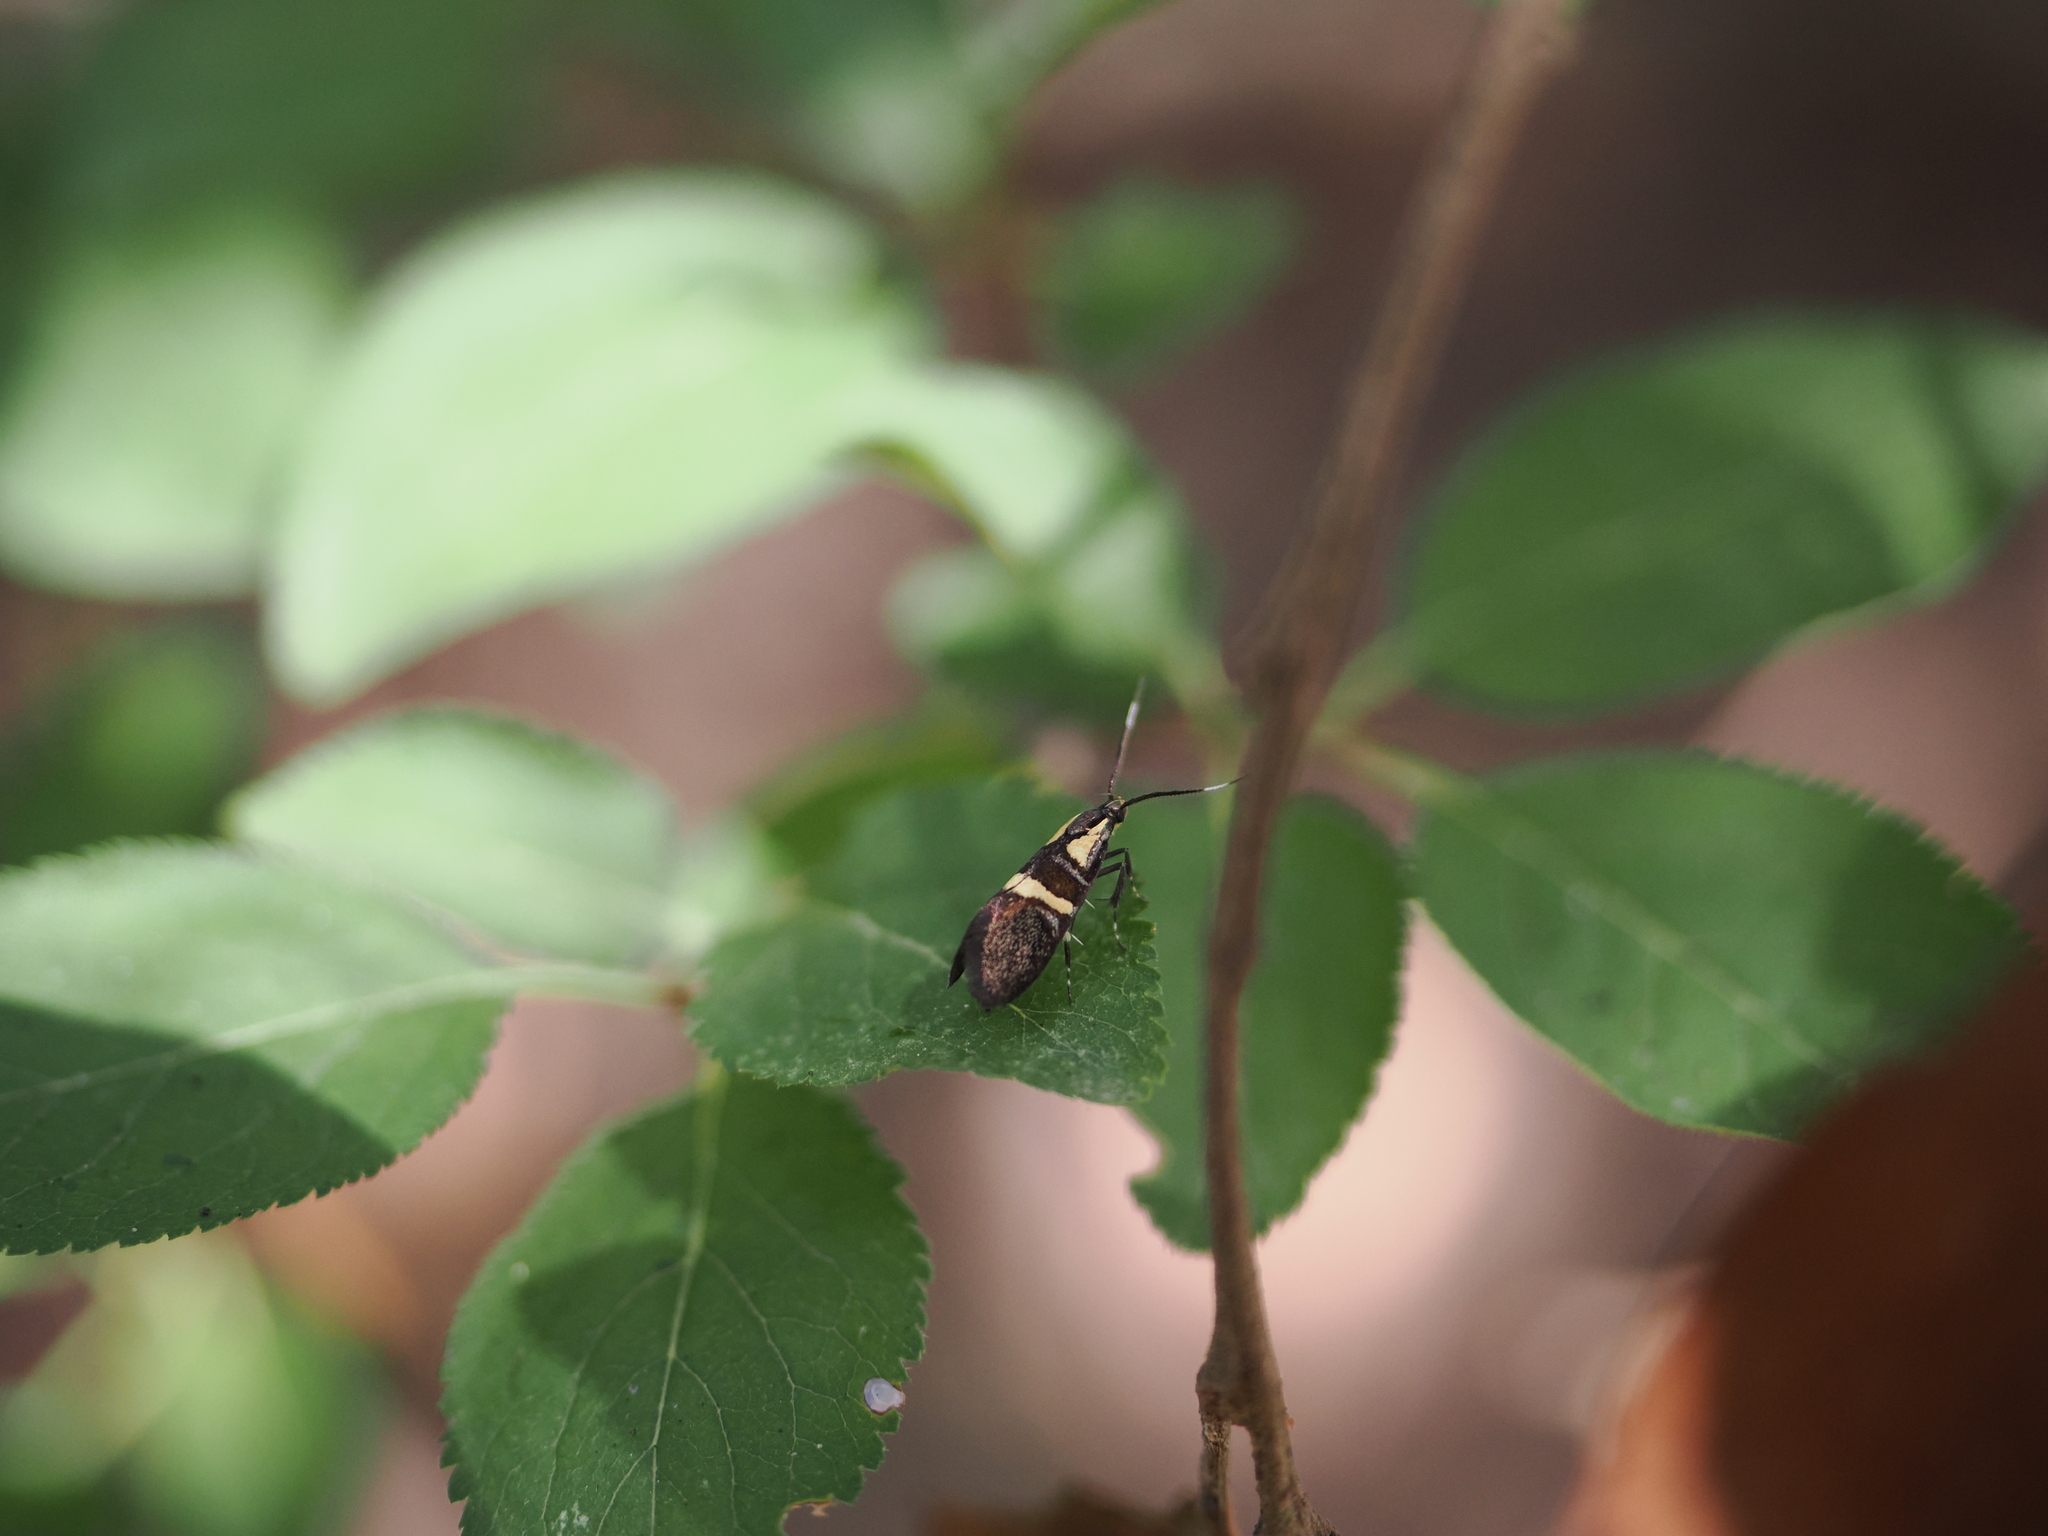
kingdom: Animalia
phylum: Arthropoda
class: Insecta
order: Lepidoptera
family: Oecophoridae
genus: Dafa
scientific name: Dafa oliviella
